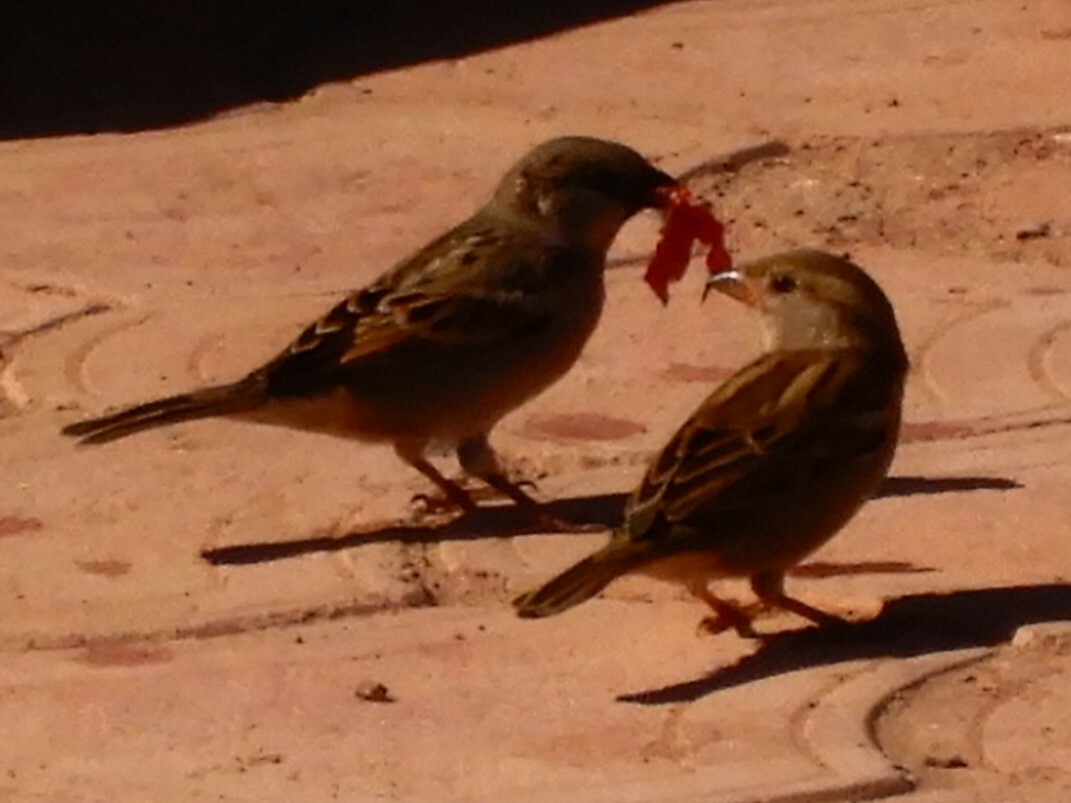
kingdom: Animalia
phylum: Chordata
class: Aves
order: Passeriformes
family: Passeridae
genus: Passer
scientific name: Passer domesticus
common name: House sparrow
